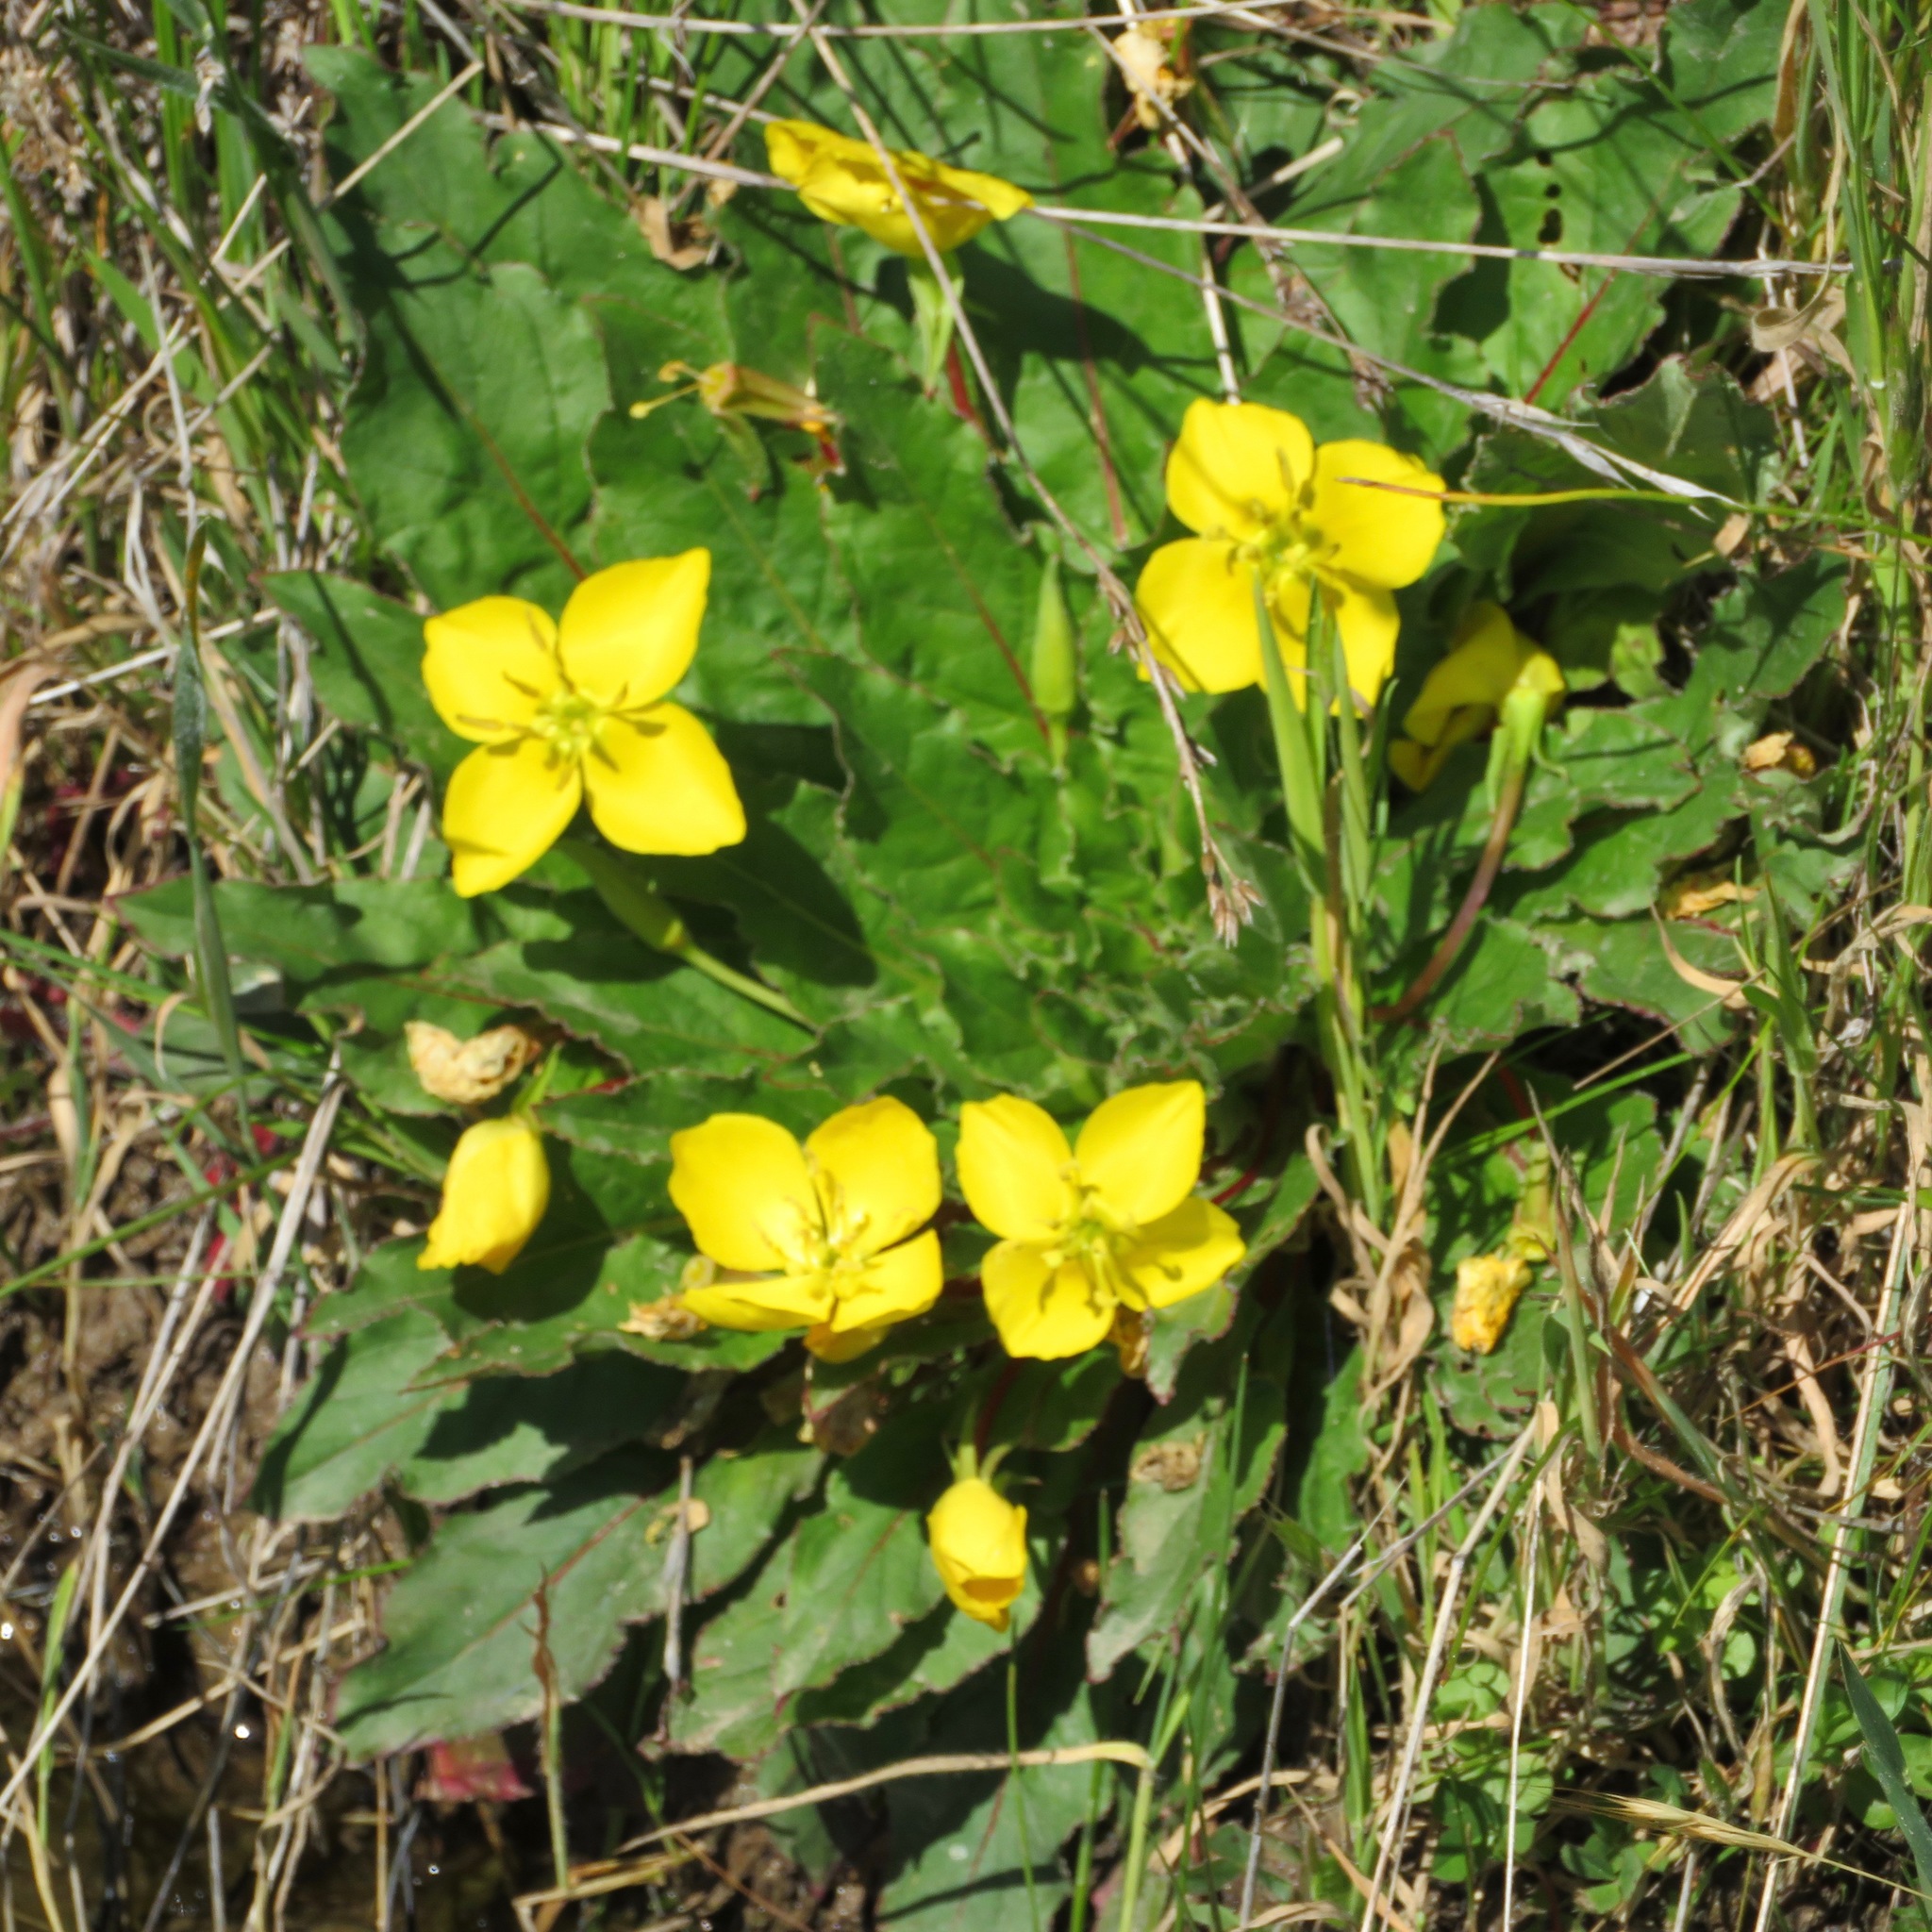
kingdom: Plantae
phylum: Tracheophyta
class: Magnoliopsida
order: Myrtales
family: Onagraceae
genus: Taraxia
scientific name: Taraxia ovata
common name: Goldeneggs
